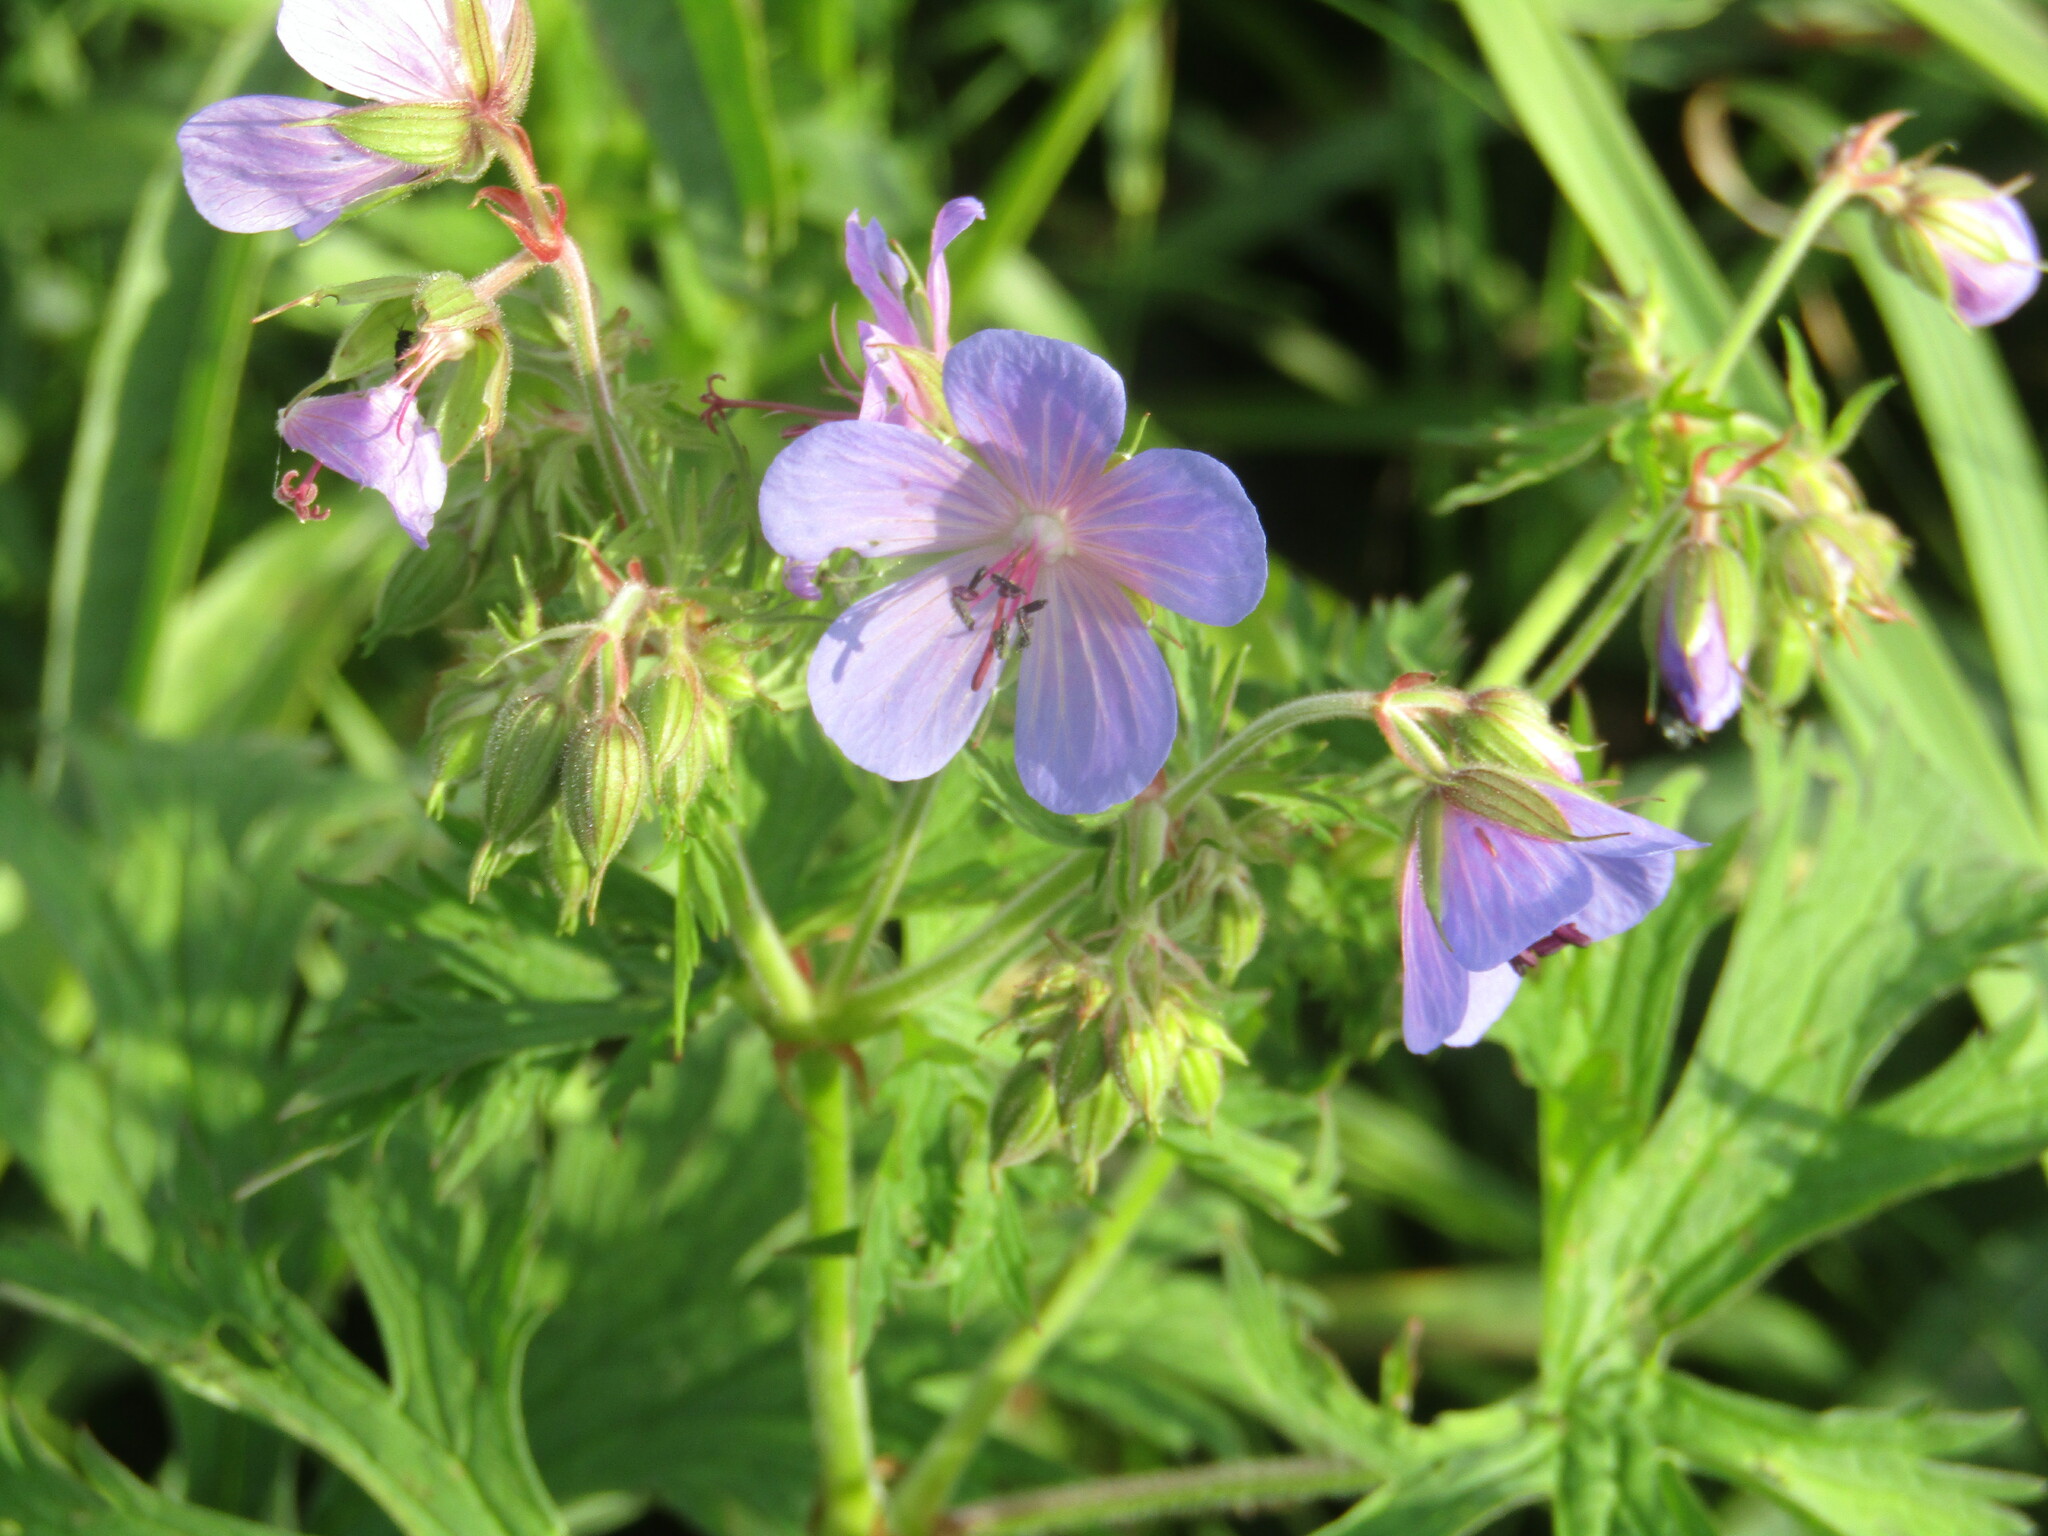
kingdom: Plantae
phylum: Tracheophyta
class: Magnoliopsida
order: Geraniales
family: Geraniaceae
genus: Geranium
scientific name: Geranium pratense
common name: Meadow crane's-bill
